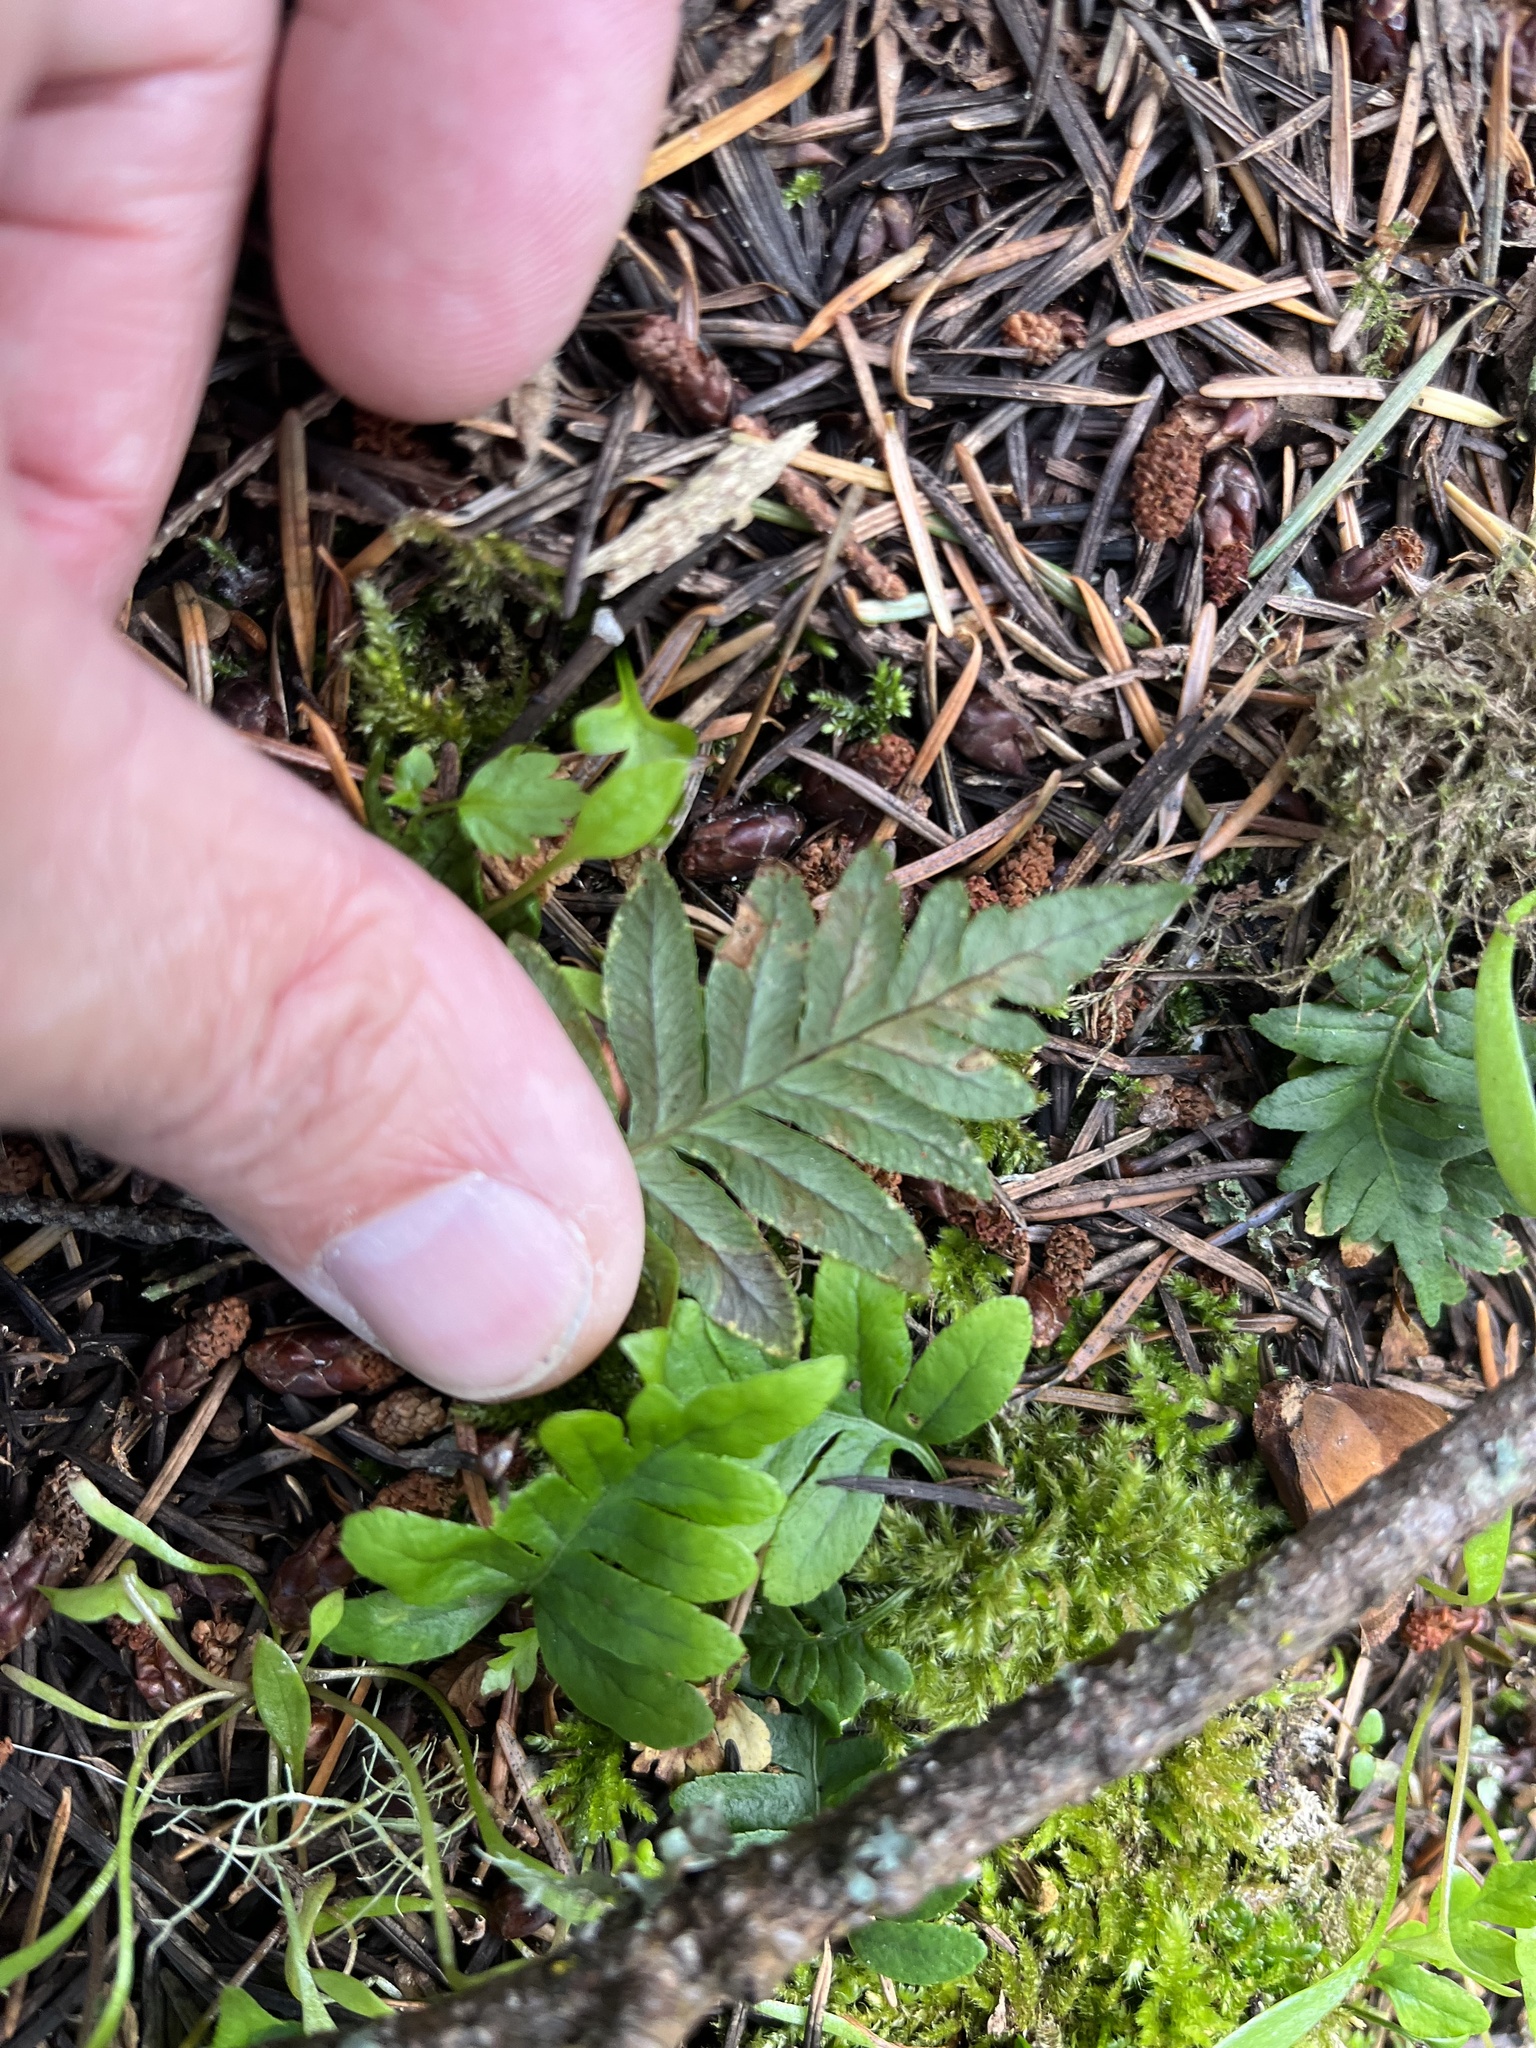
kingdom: Plantae
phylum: Tracheophyta
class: Polypodiopsida
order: Polypodiales
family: Polypodiaceae
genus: Polypodium
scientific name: Polypodium glycyrrhiza
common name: Licorice fern
